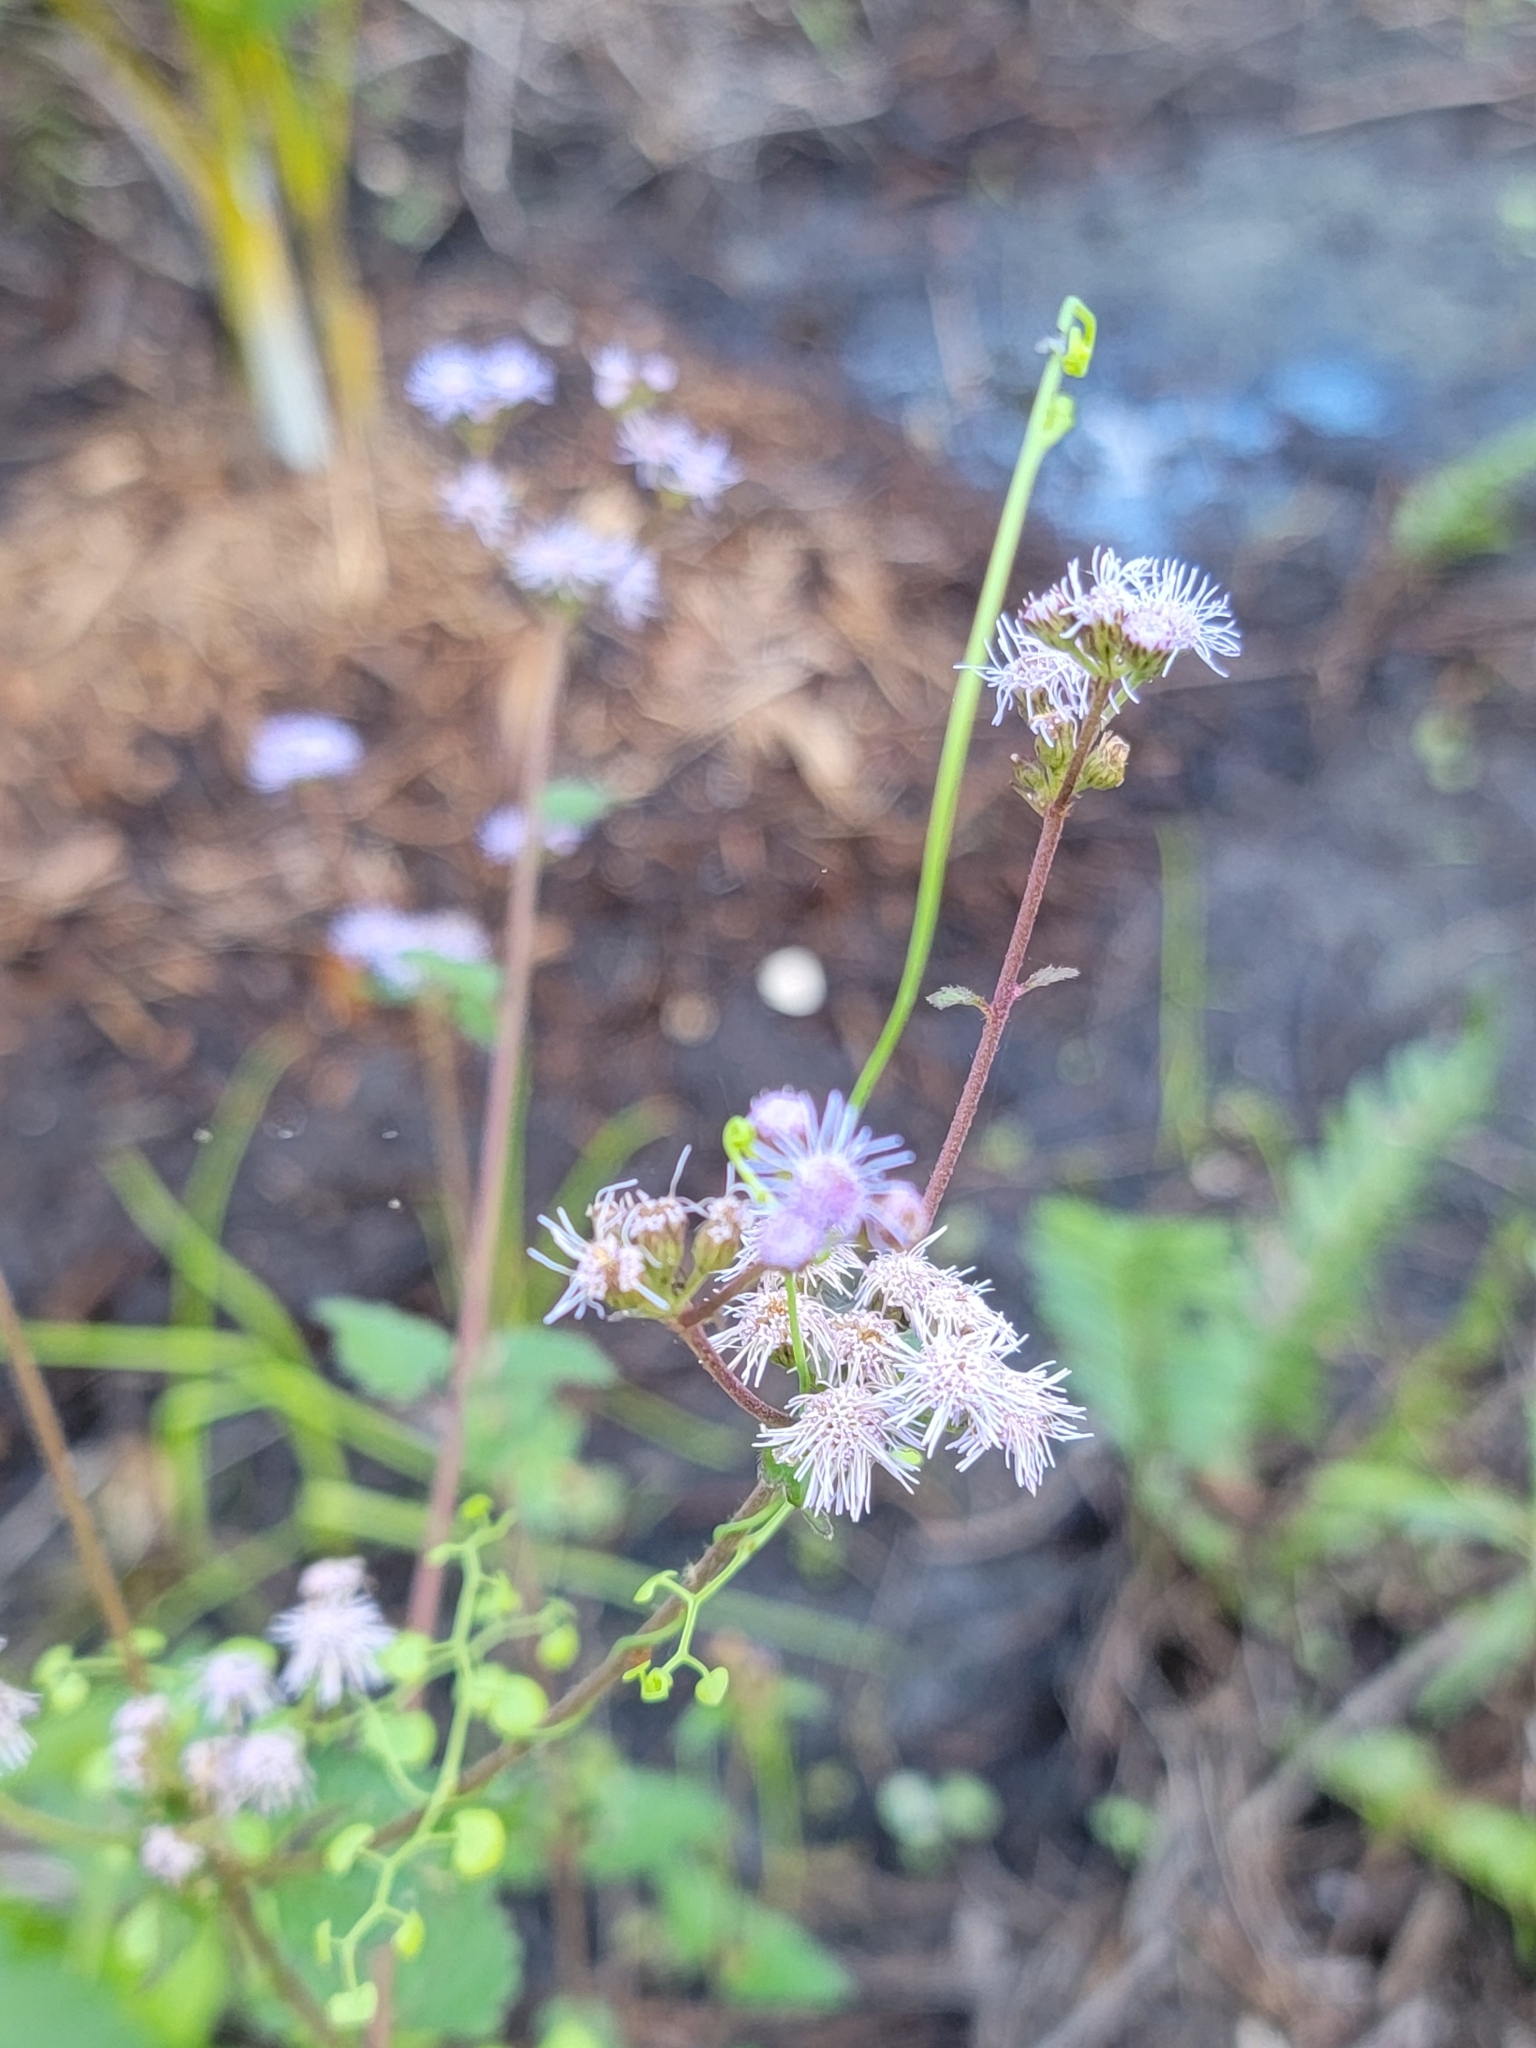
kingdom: Plantae
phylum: Tracheophyta
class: Magnoliopsida
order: Asterales
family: Asteraceae
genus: Conoclinium
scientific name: Conoclinium coelestinum
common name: Blue mistflower
